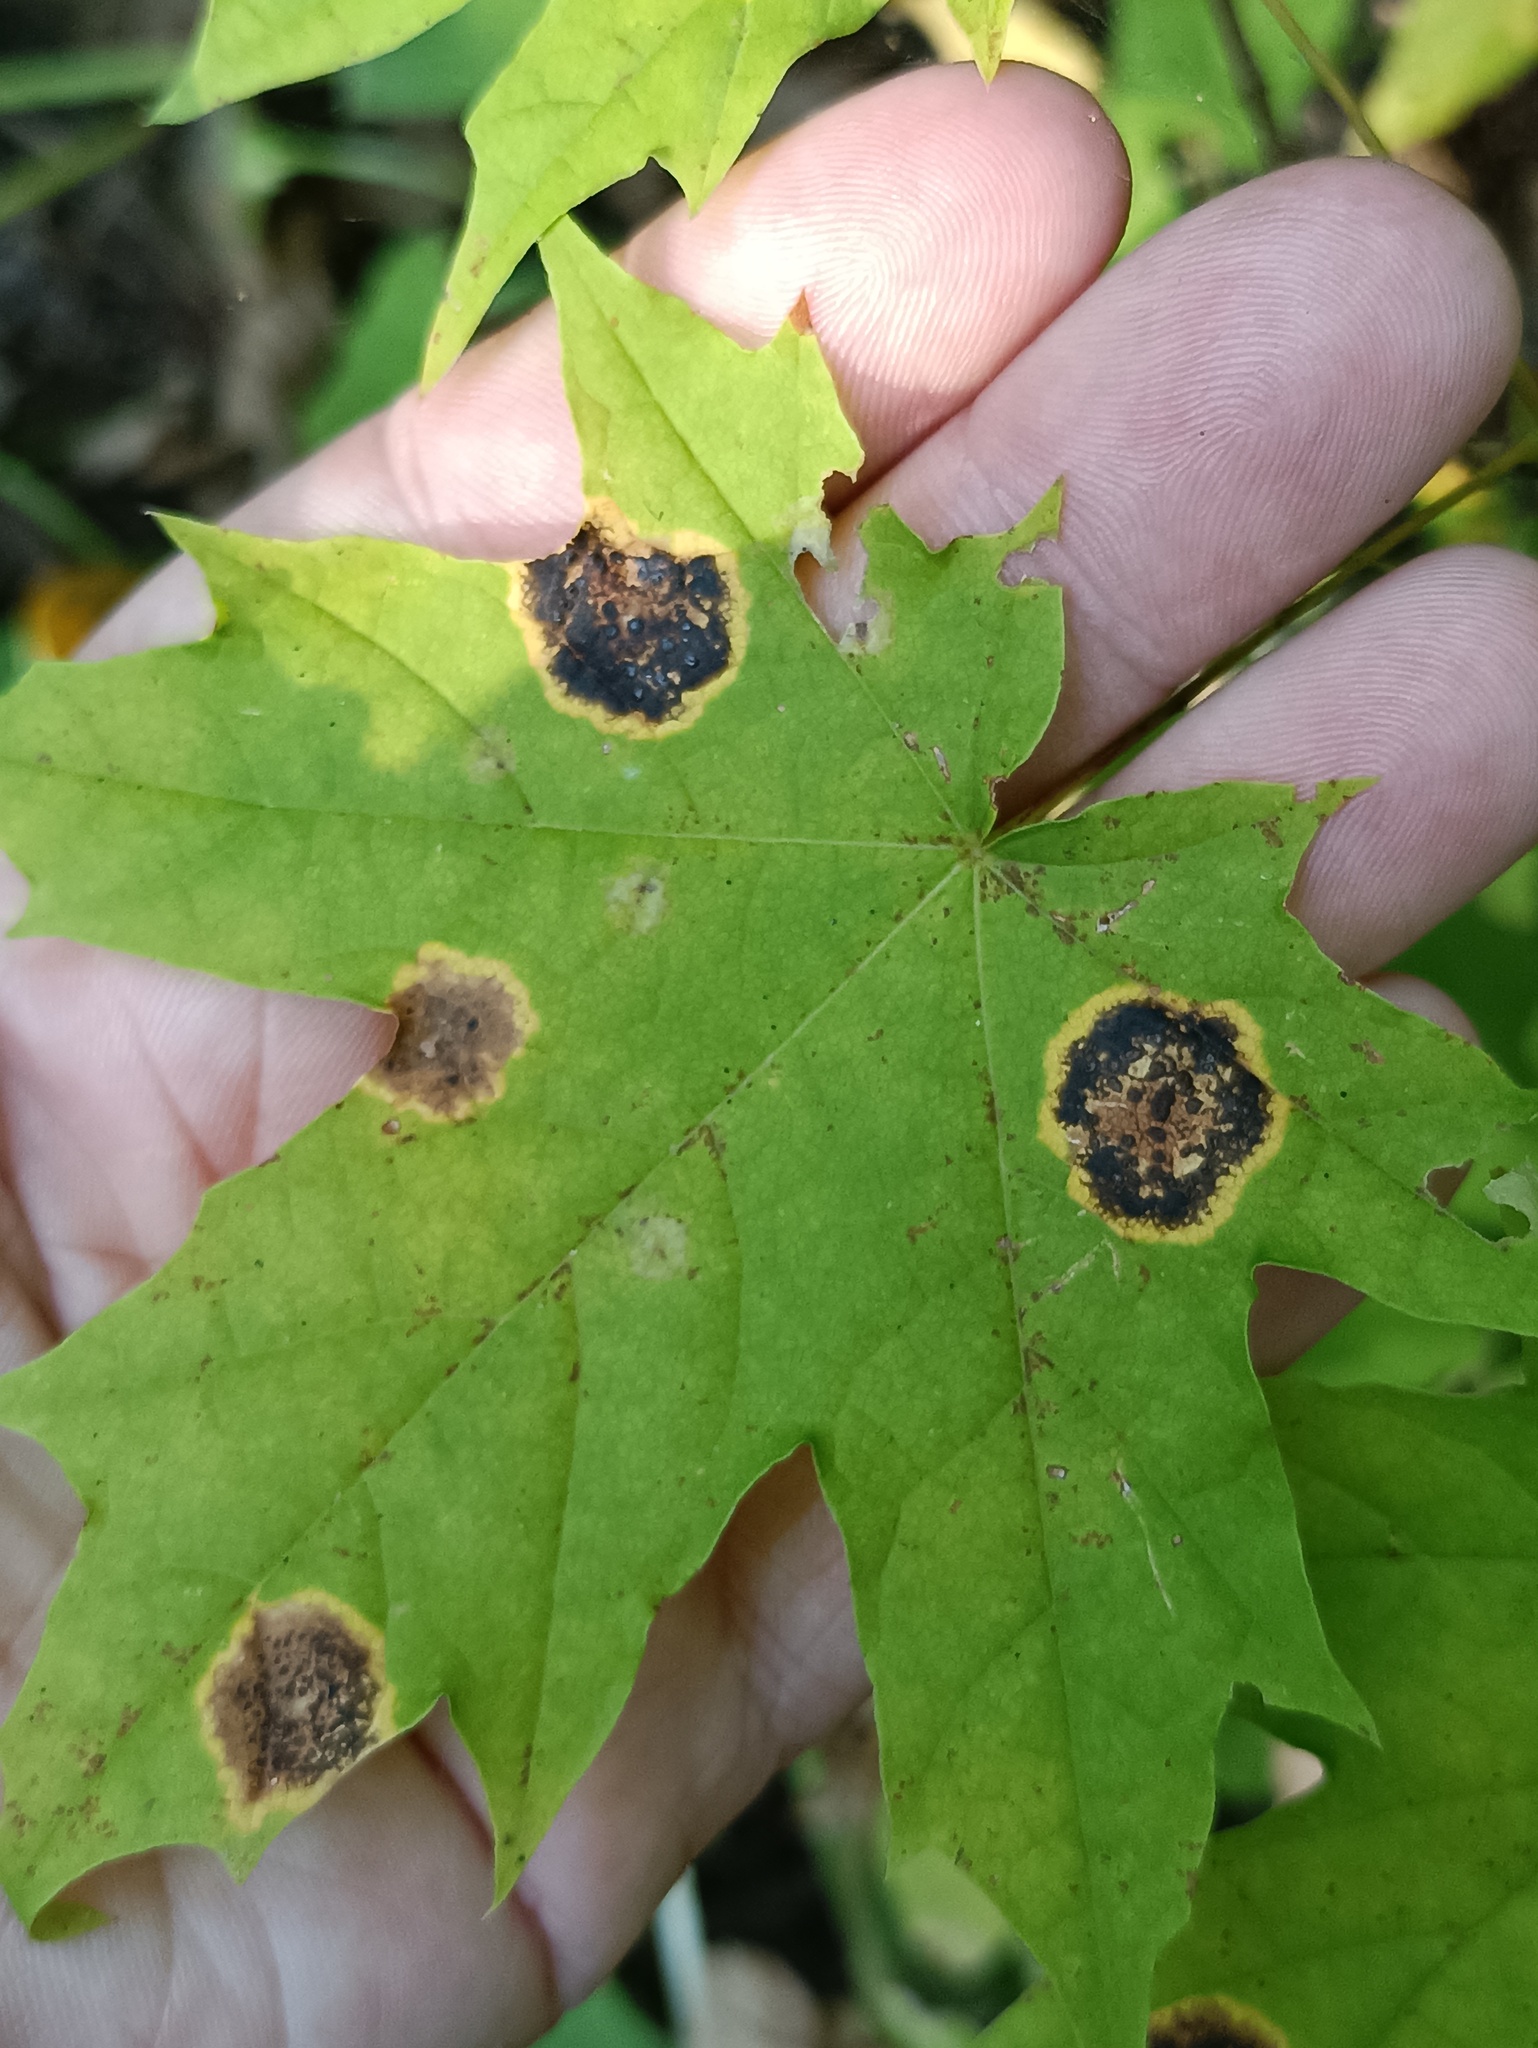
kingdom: Fungi
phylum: Ascomycota
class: Leotiomycetes
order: Rhytismatales
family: Rhytismataceae
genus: Rhytisma
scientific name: Rhytisma acerinum
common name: European tar spot
